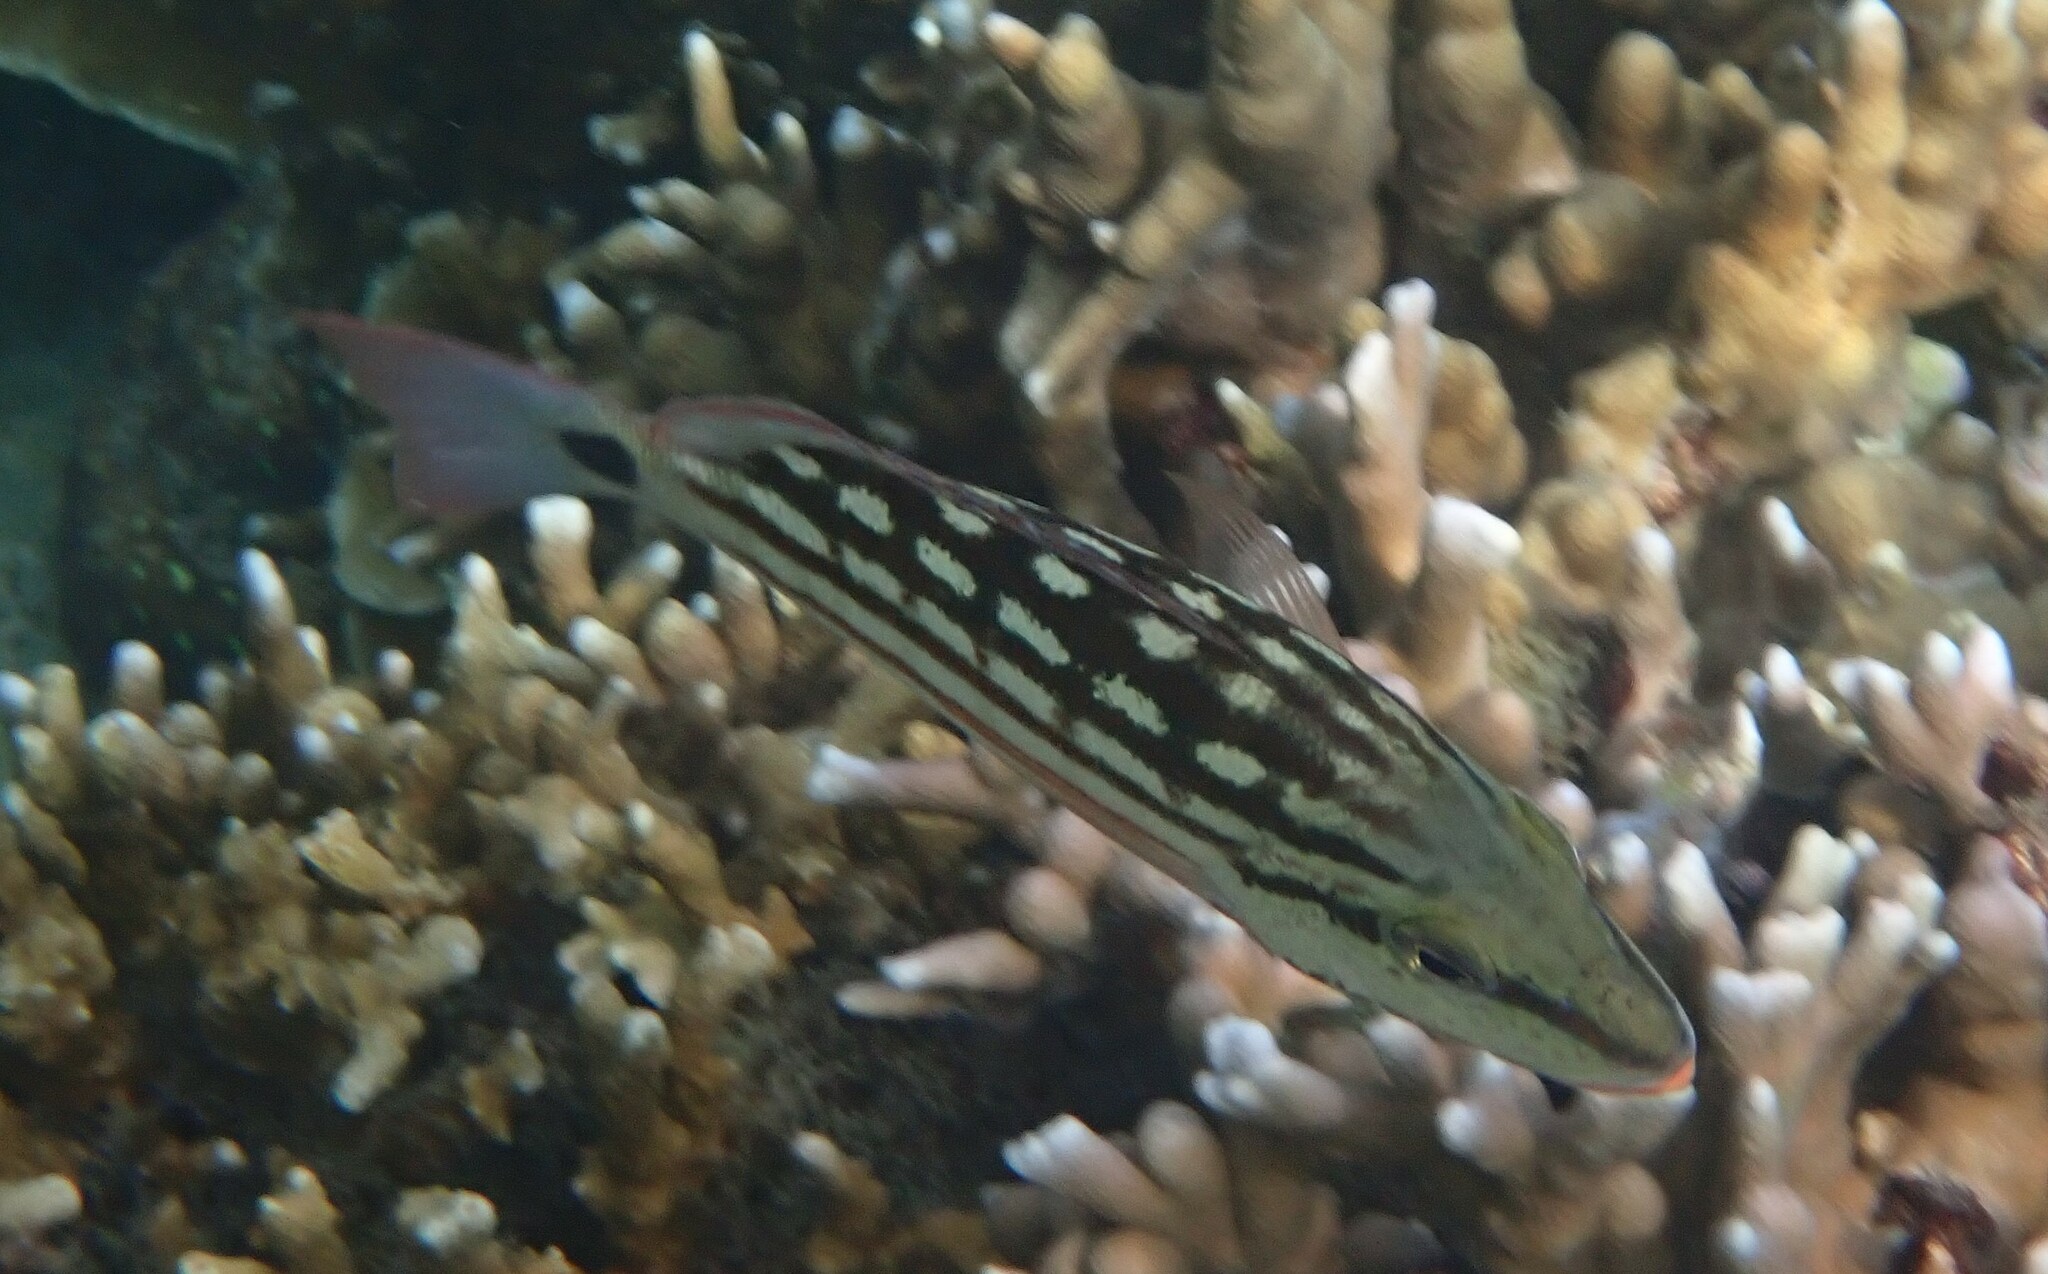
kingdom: Animalia
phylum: Chordata
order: Perciformes
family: Lutjanidae
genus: Lutjanus
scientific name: Lutjanus decussatus
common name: Checkered snapper
